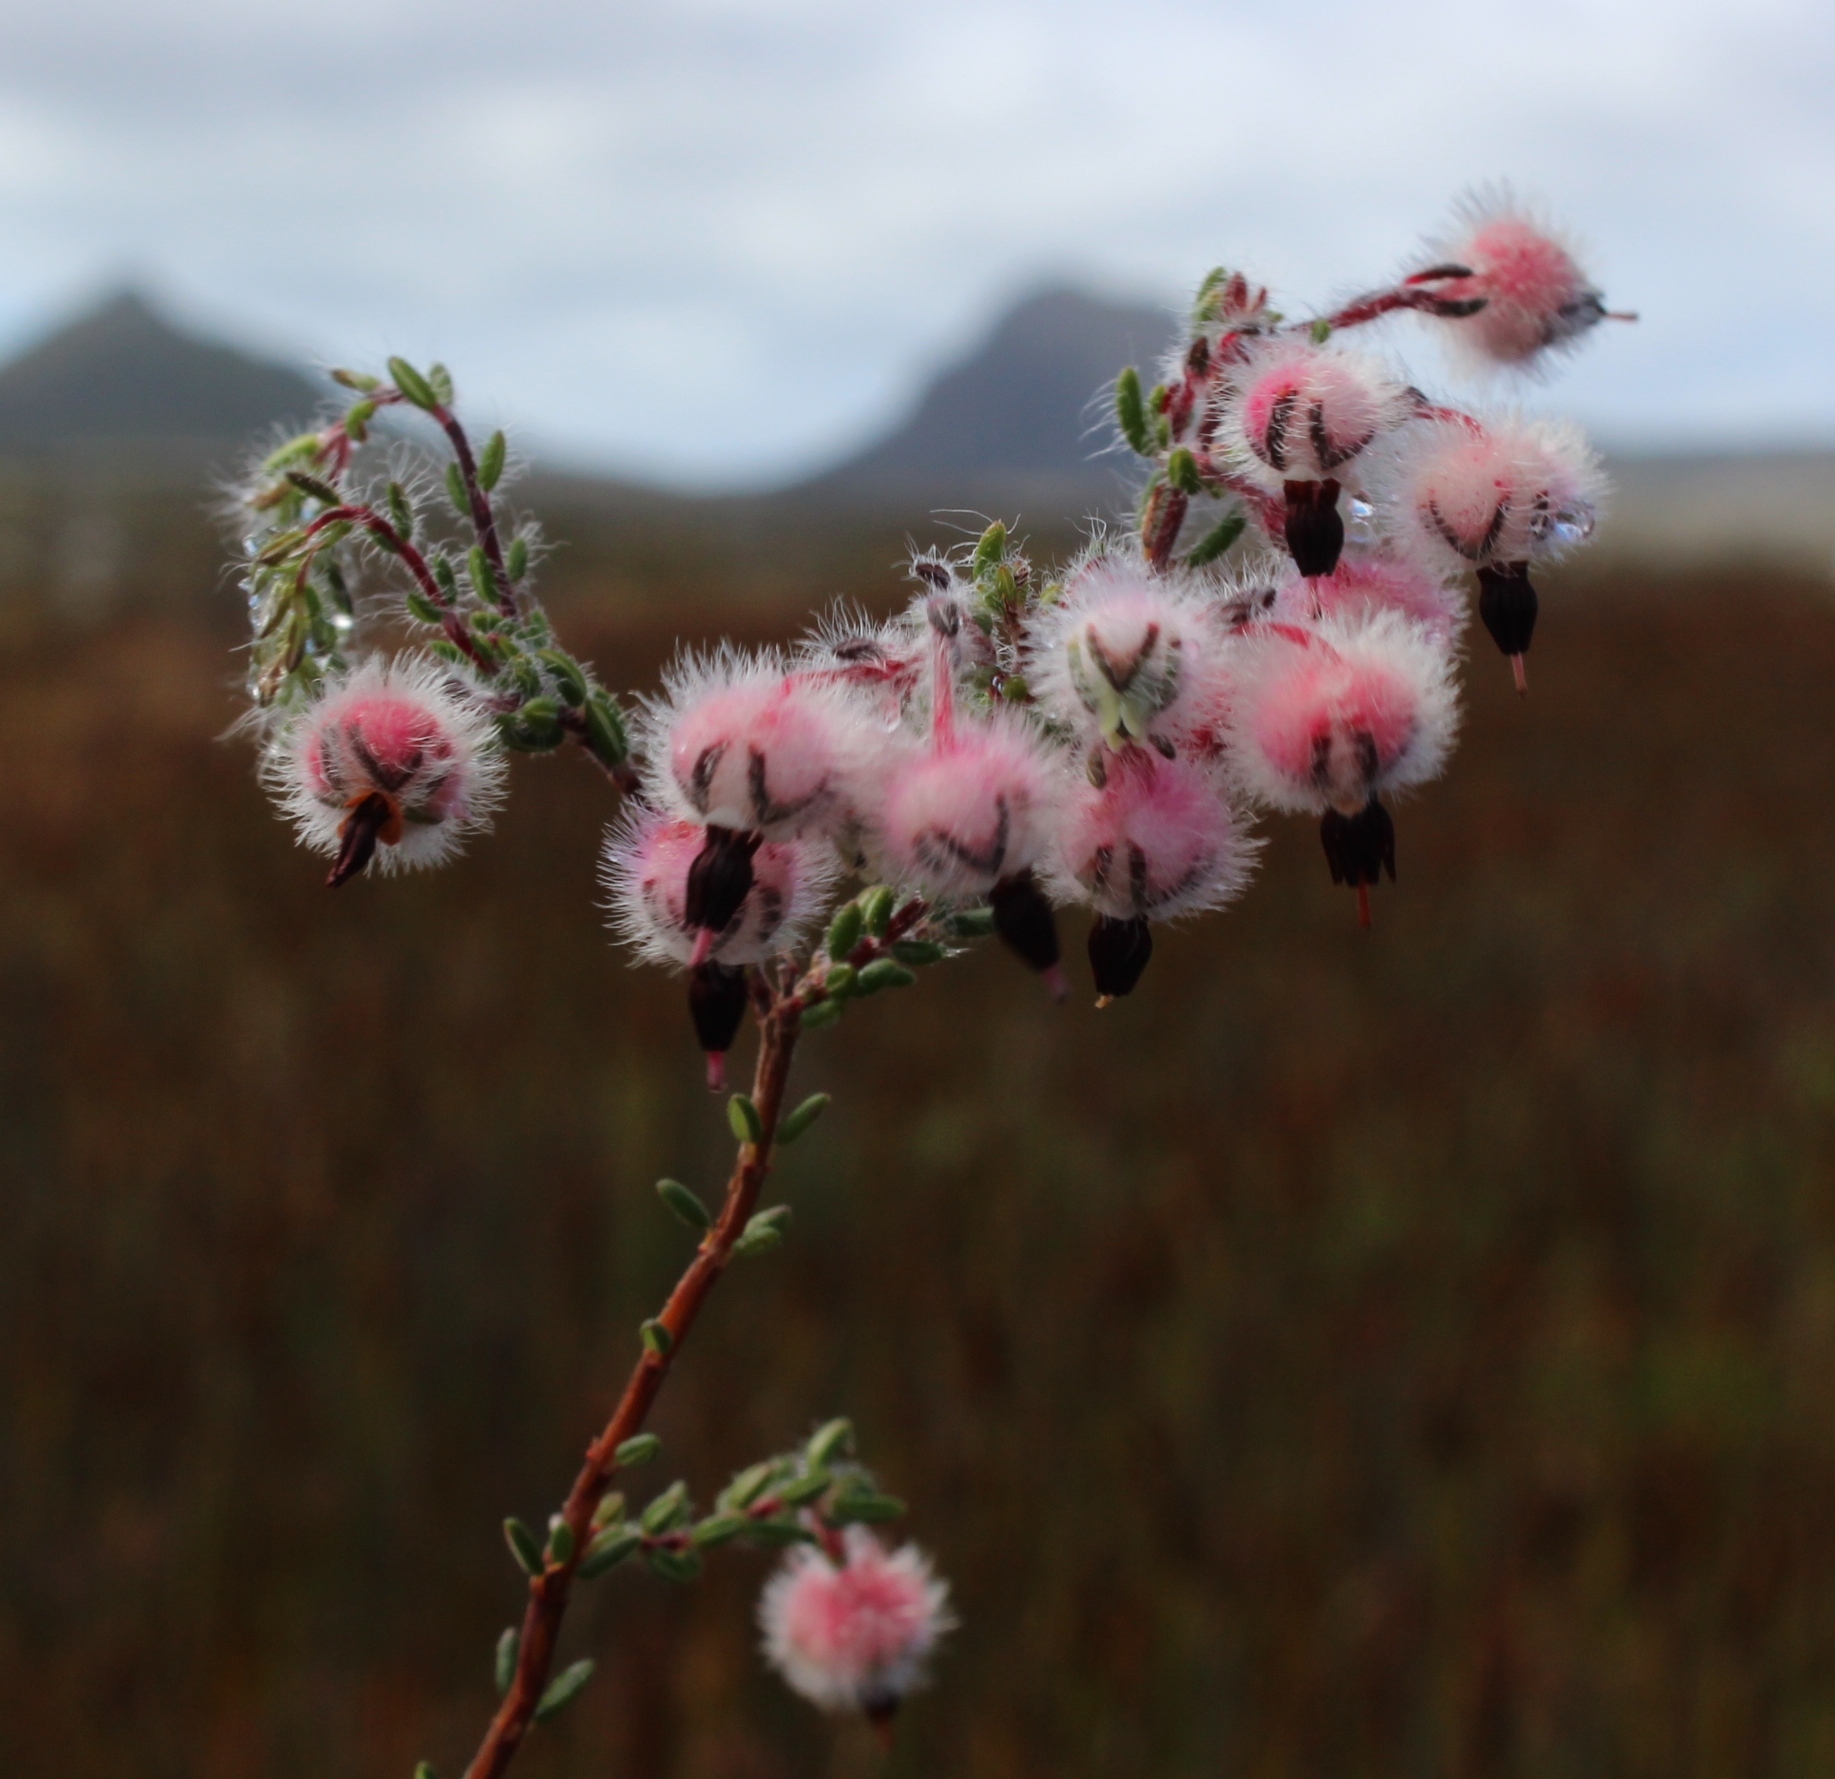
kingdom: Plantae
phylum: Tracheophyta
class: Magnoliopsida
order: Ericales
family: Ericaceae
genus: Erica
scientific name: Erica bruniades
